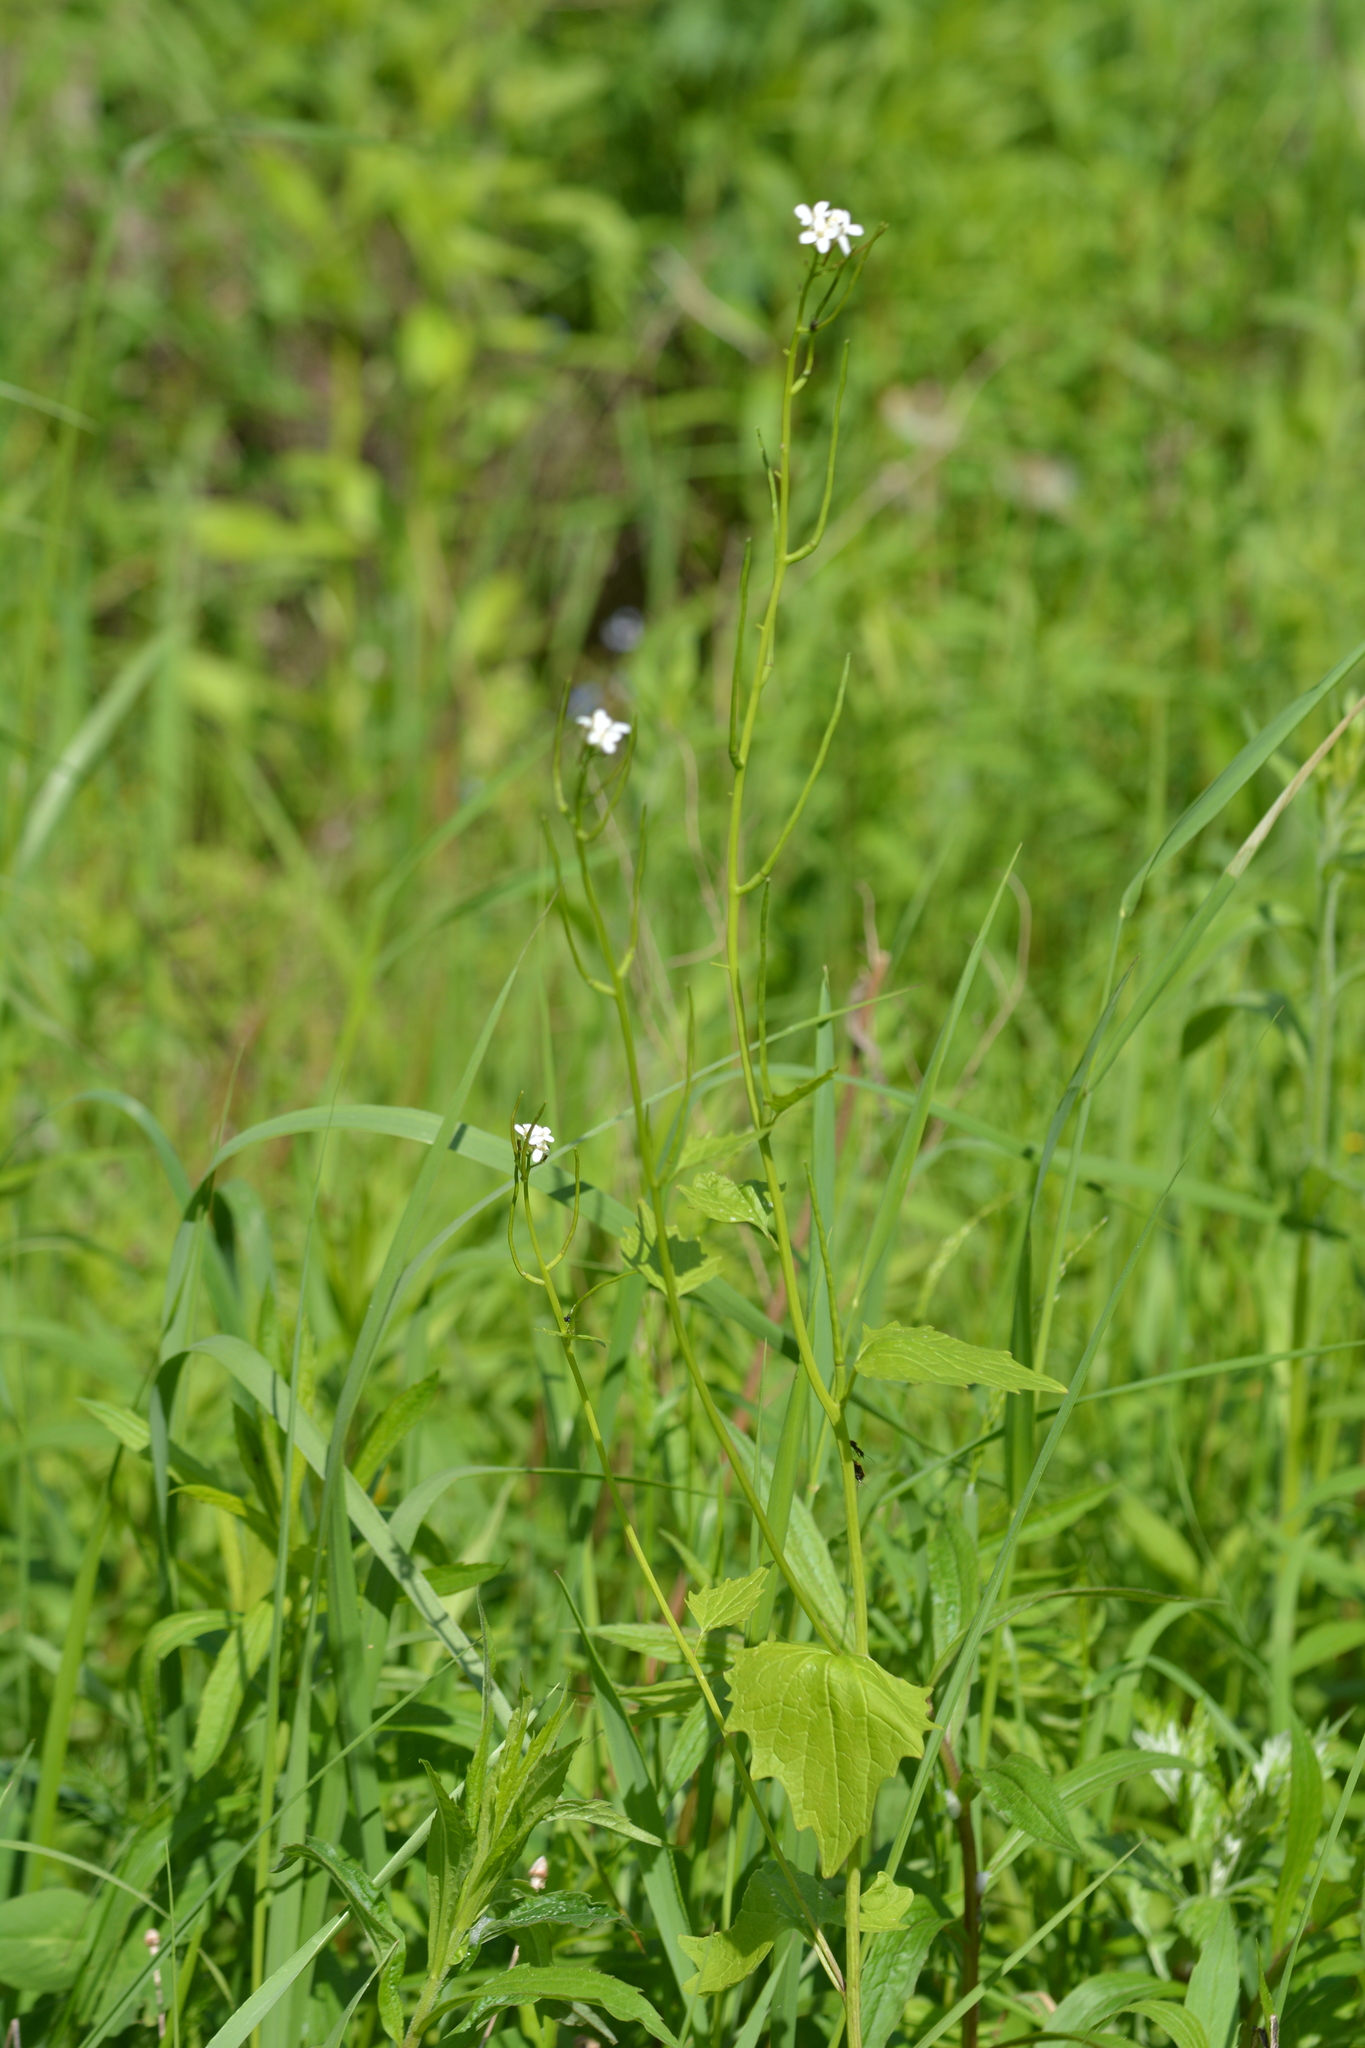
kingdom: Plantae
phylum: Tracheophyta
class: Magnoliopsida
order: Brassicales
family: Brassicaceae
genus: Alliaria
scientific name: Alliaria petiolata
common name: Garlic mustard
